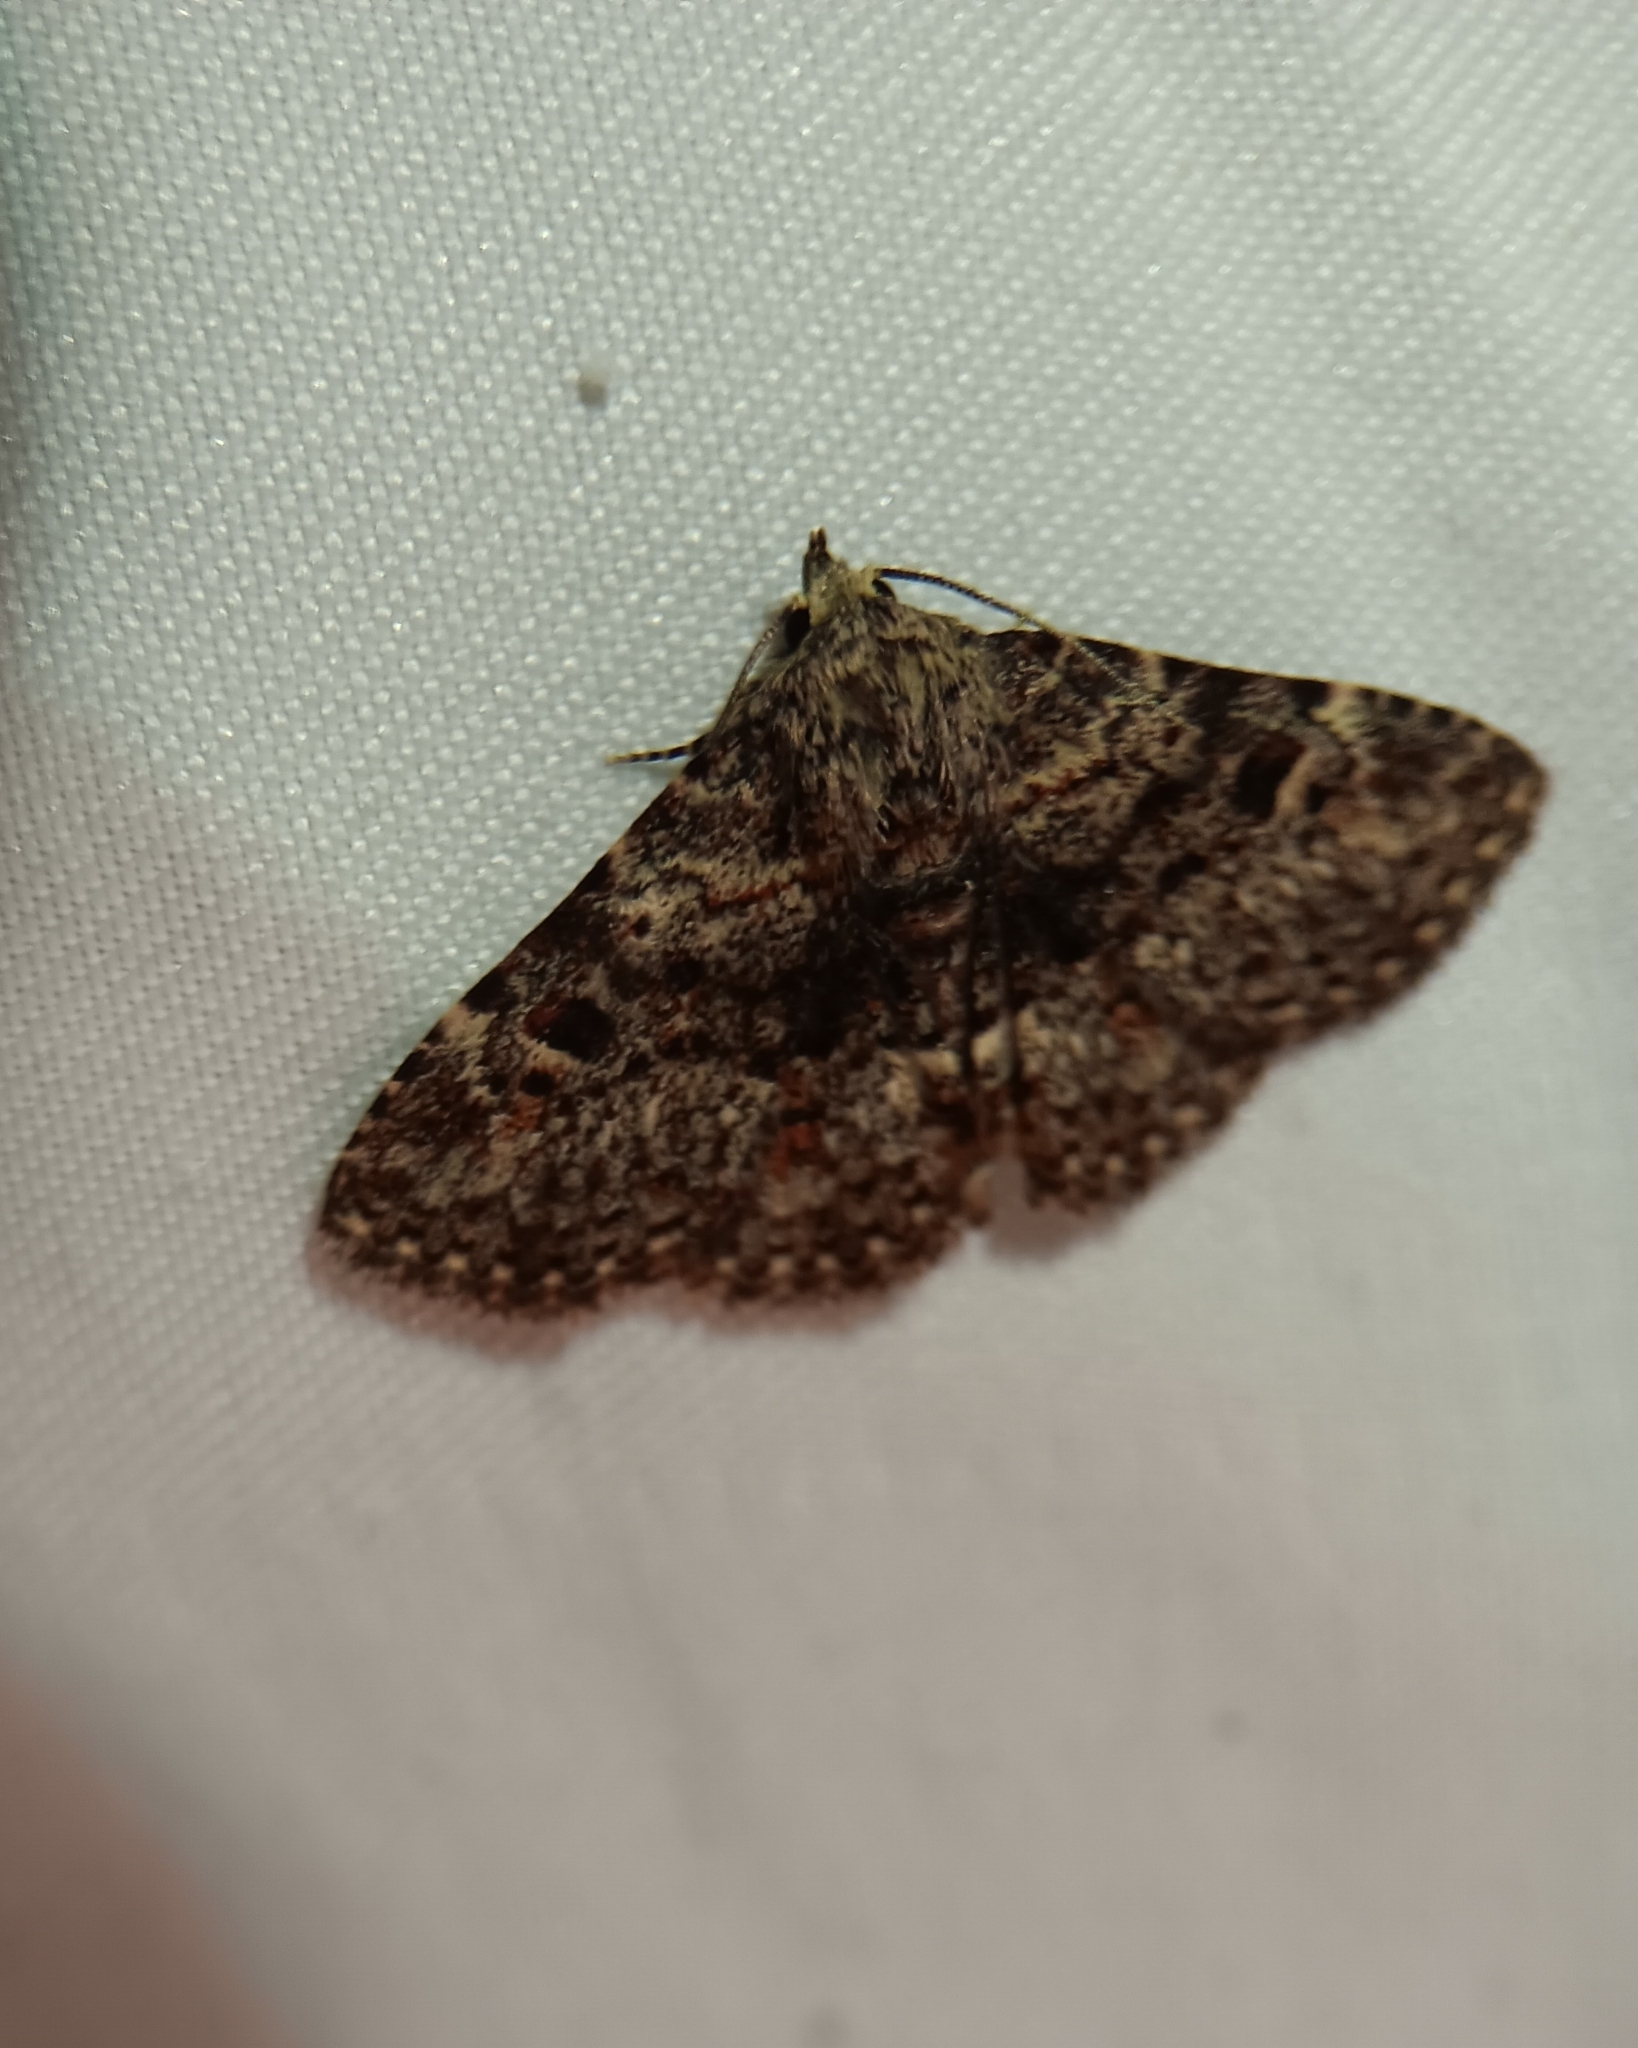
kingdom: Animalia
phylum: Arthropoda
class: Insecta
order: Lepidoptera
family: Erebidae
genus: Metalectra
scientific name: Metalectra discalis
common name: Common fungus moth
